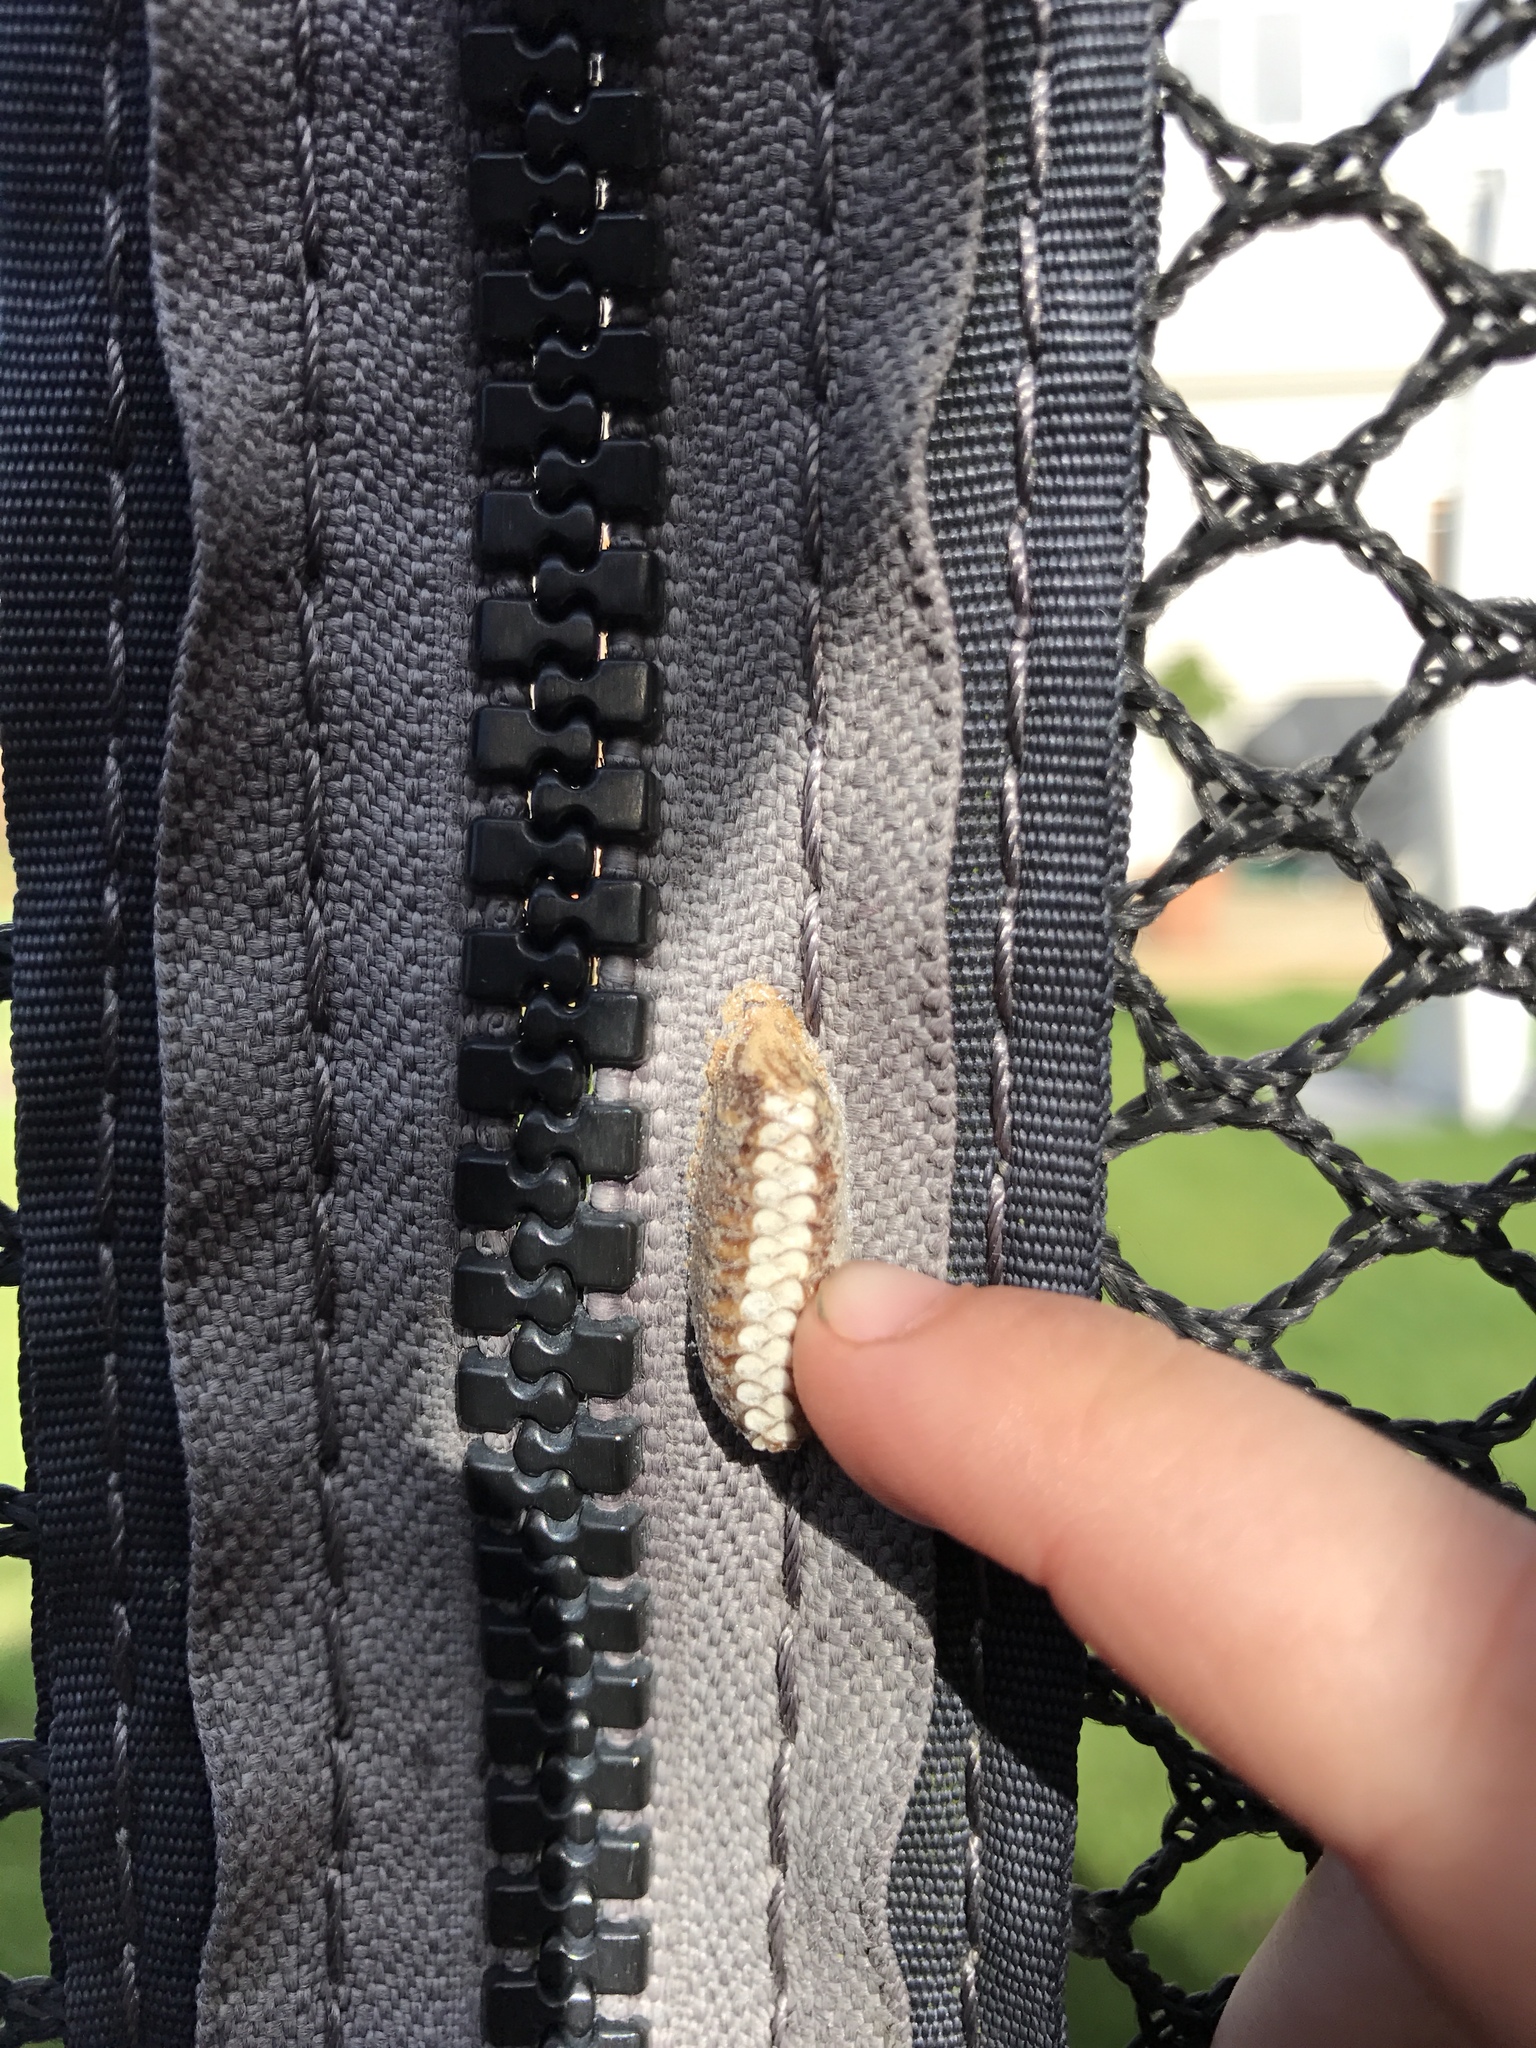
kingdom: Animalia
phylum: Arthropoda
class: Insecta
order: Mantodea
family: Mantidae
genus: Orthodera
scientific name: Orthodera novaezealandiae
